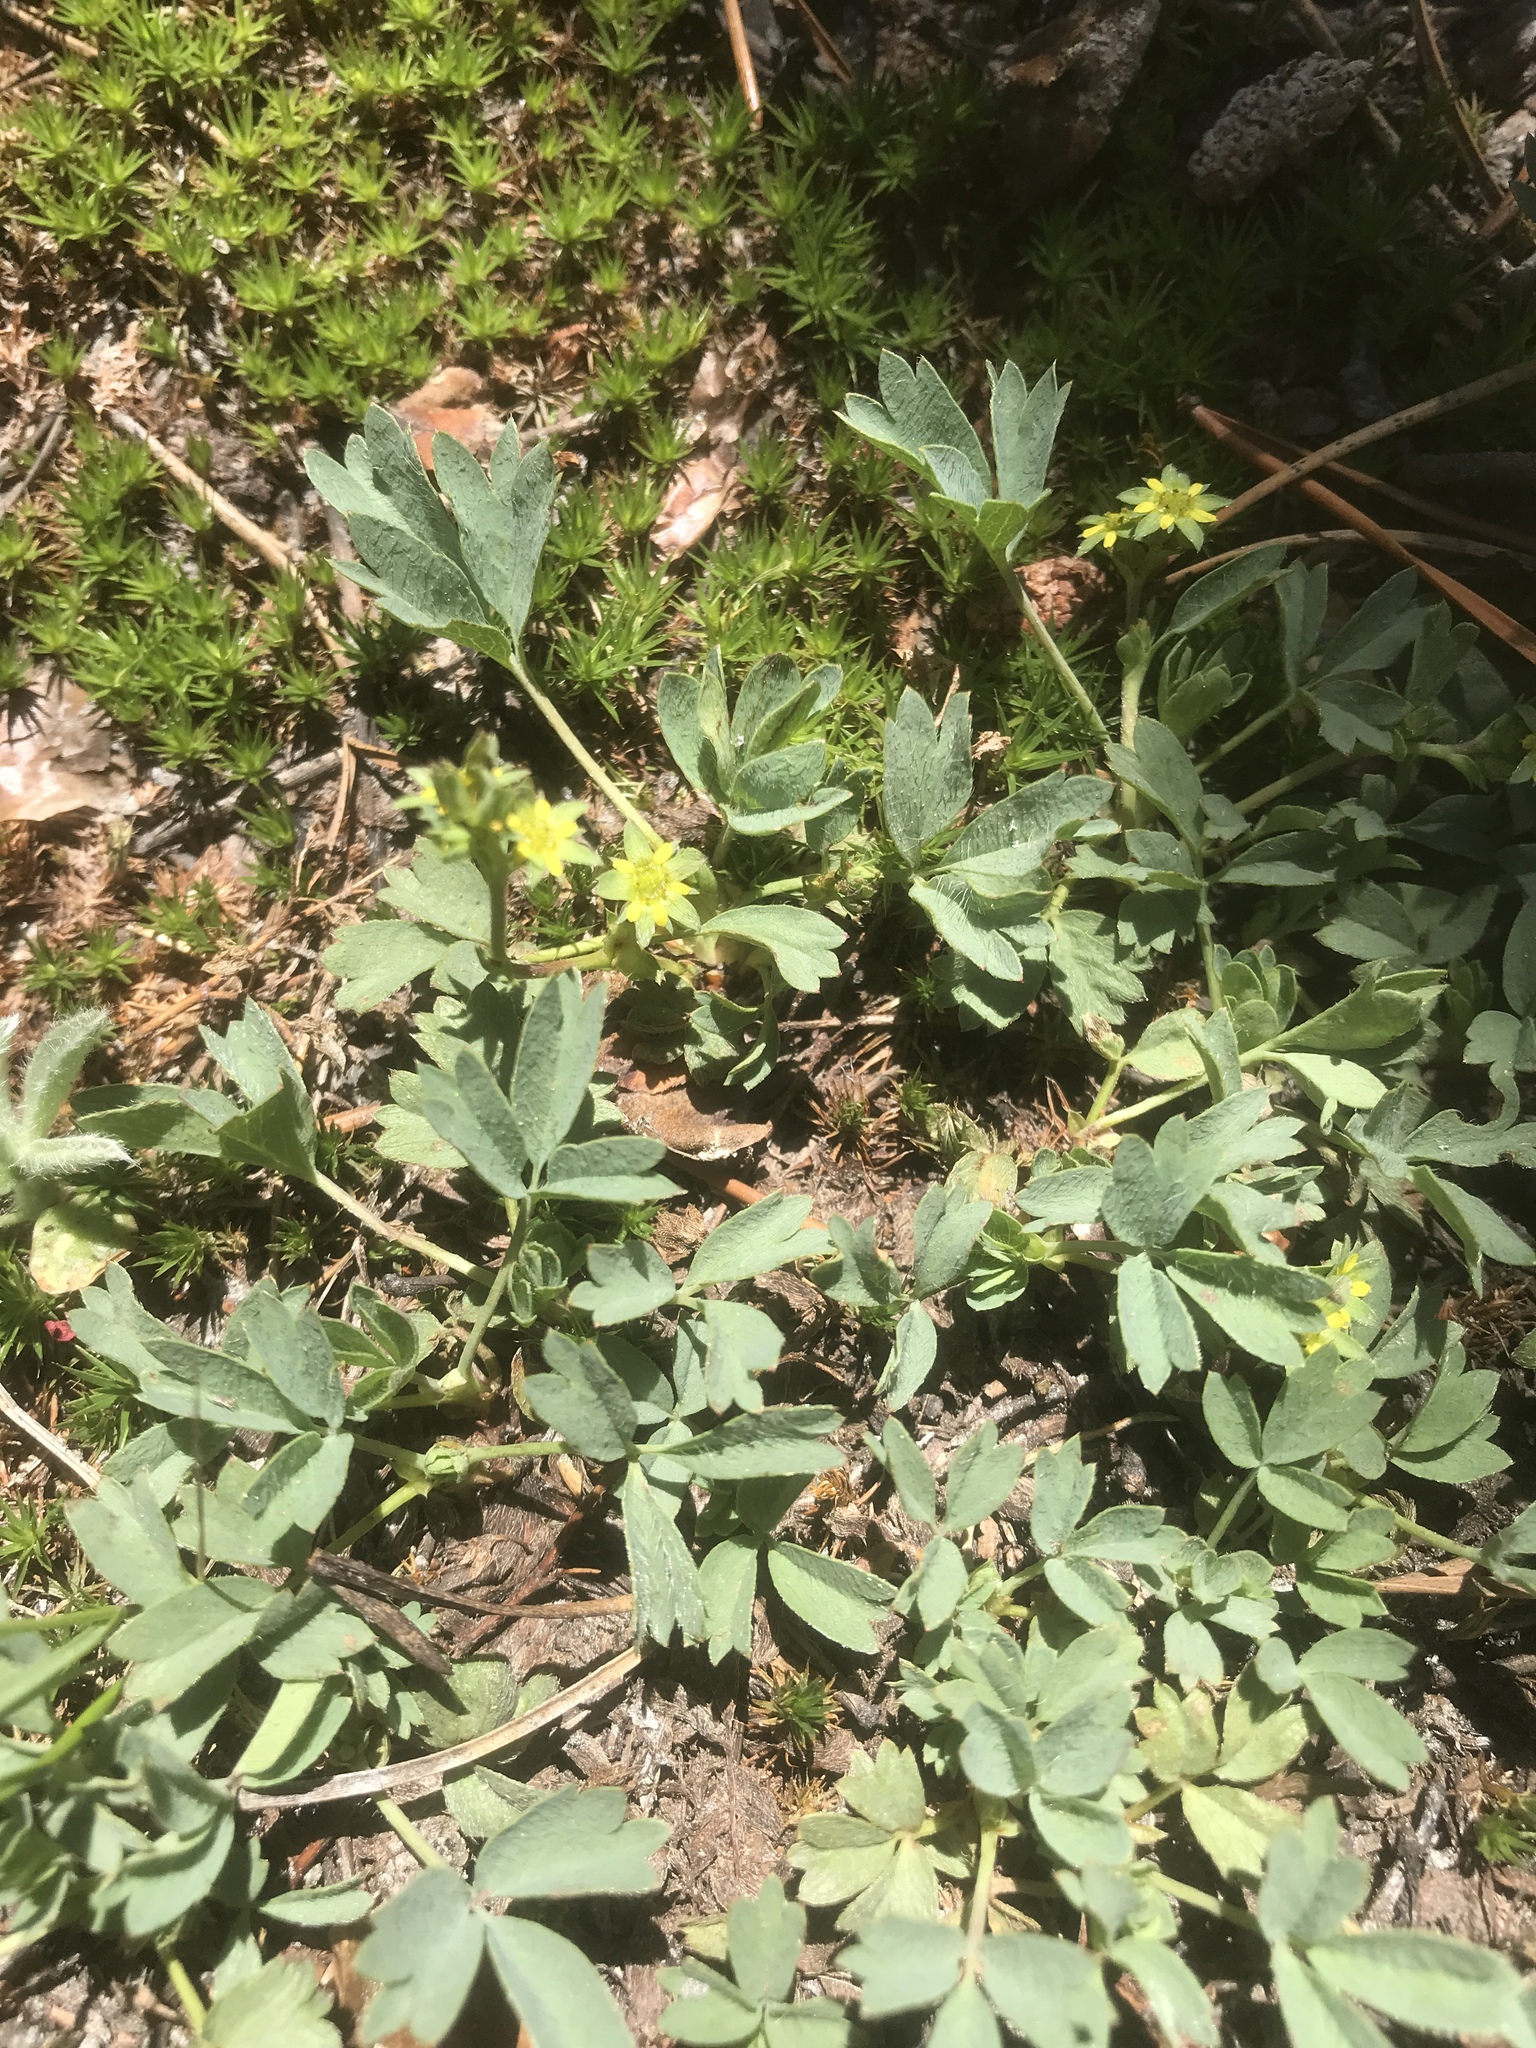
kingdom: Plantae
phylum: Tracheophyta
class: Magnoliopsida
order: Rosales
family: Rosaceae
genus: Sibbaldia
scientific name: Sibbaldia procumbens
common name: Creeping sibbaldia
